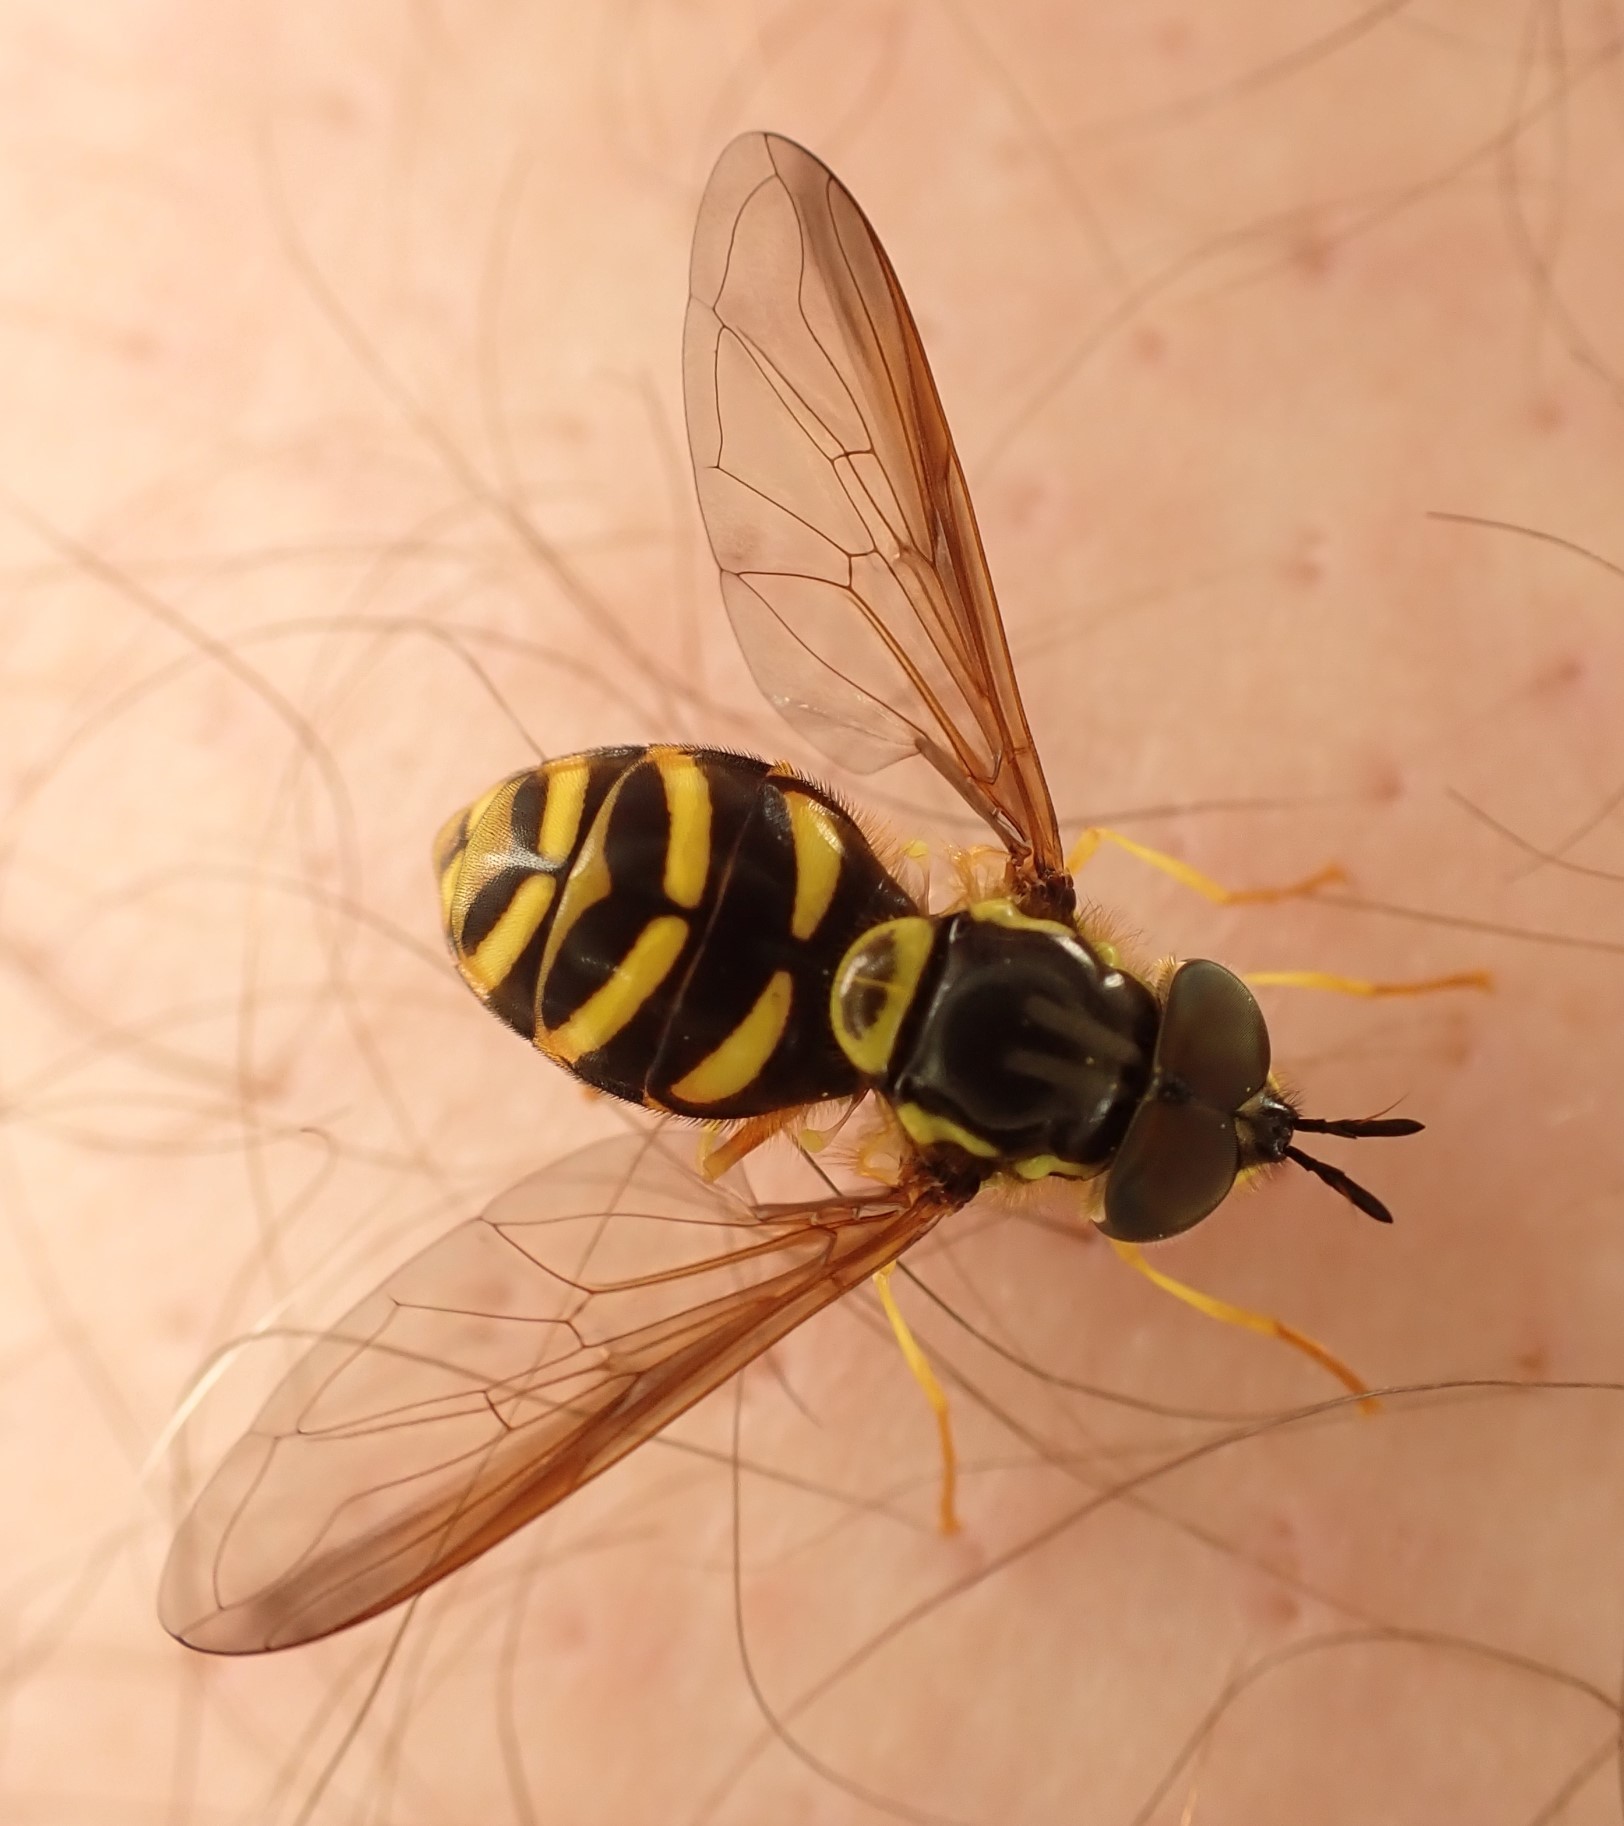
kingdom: Animalia
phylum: Arthropoda
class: Insecta
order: Diptera
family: Syrphidae
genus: Chrysotoxum
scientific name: Chrysotoxum intermedium
